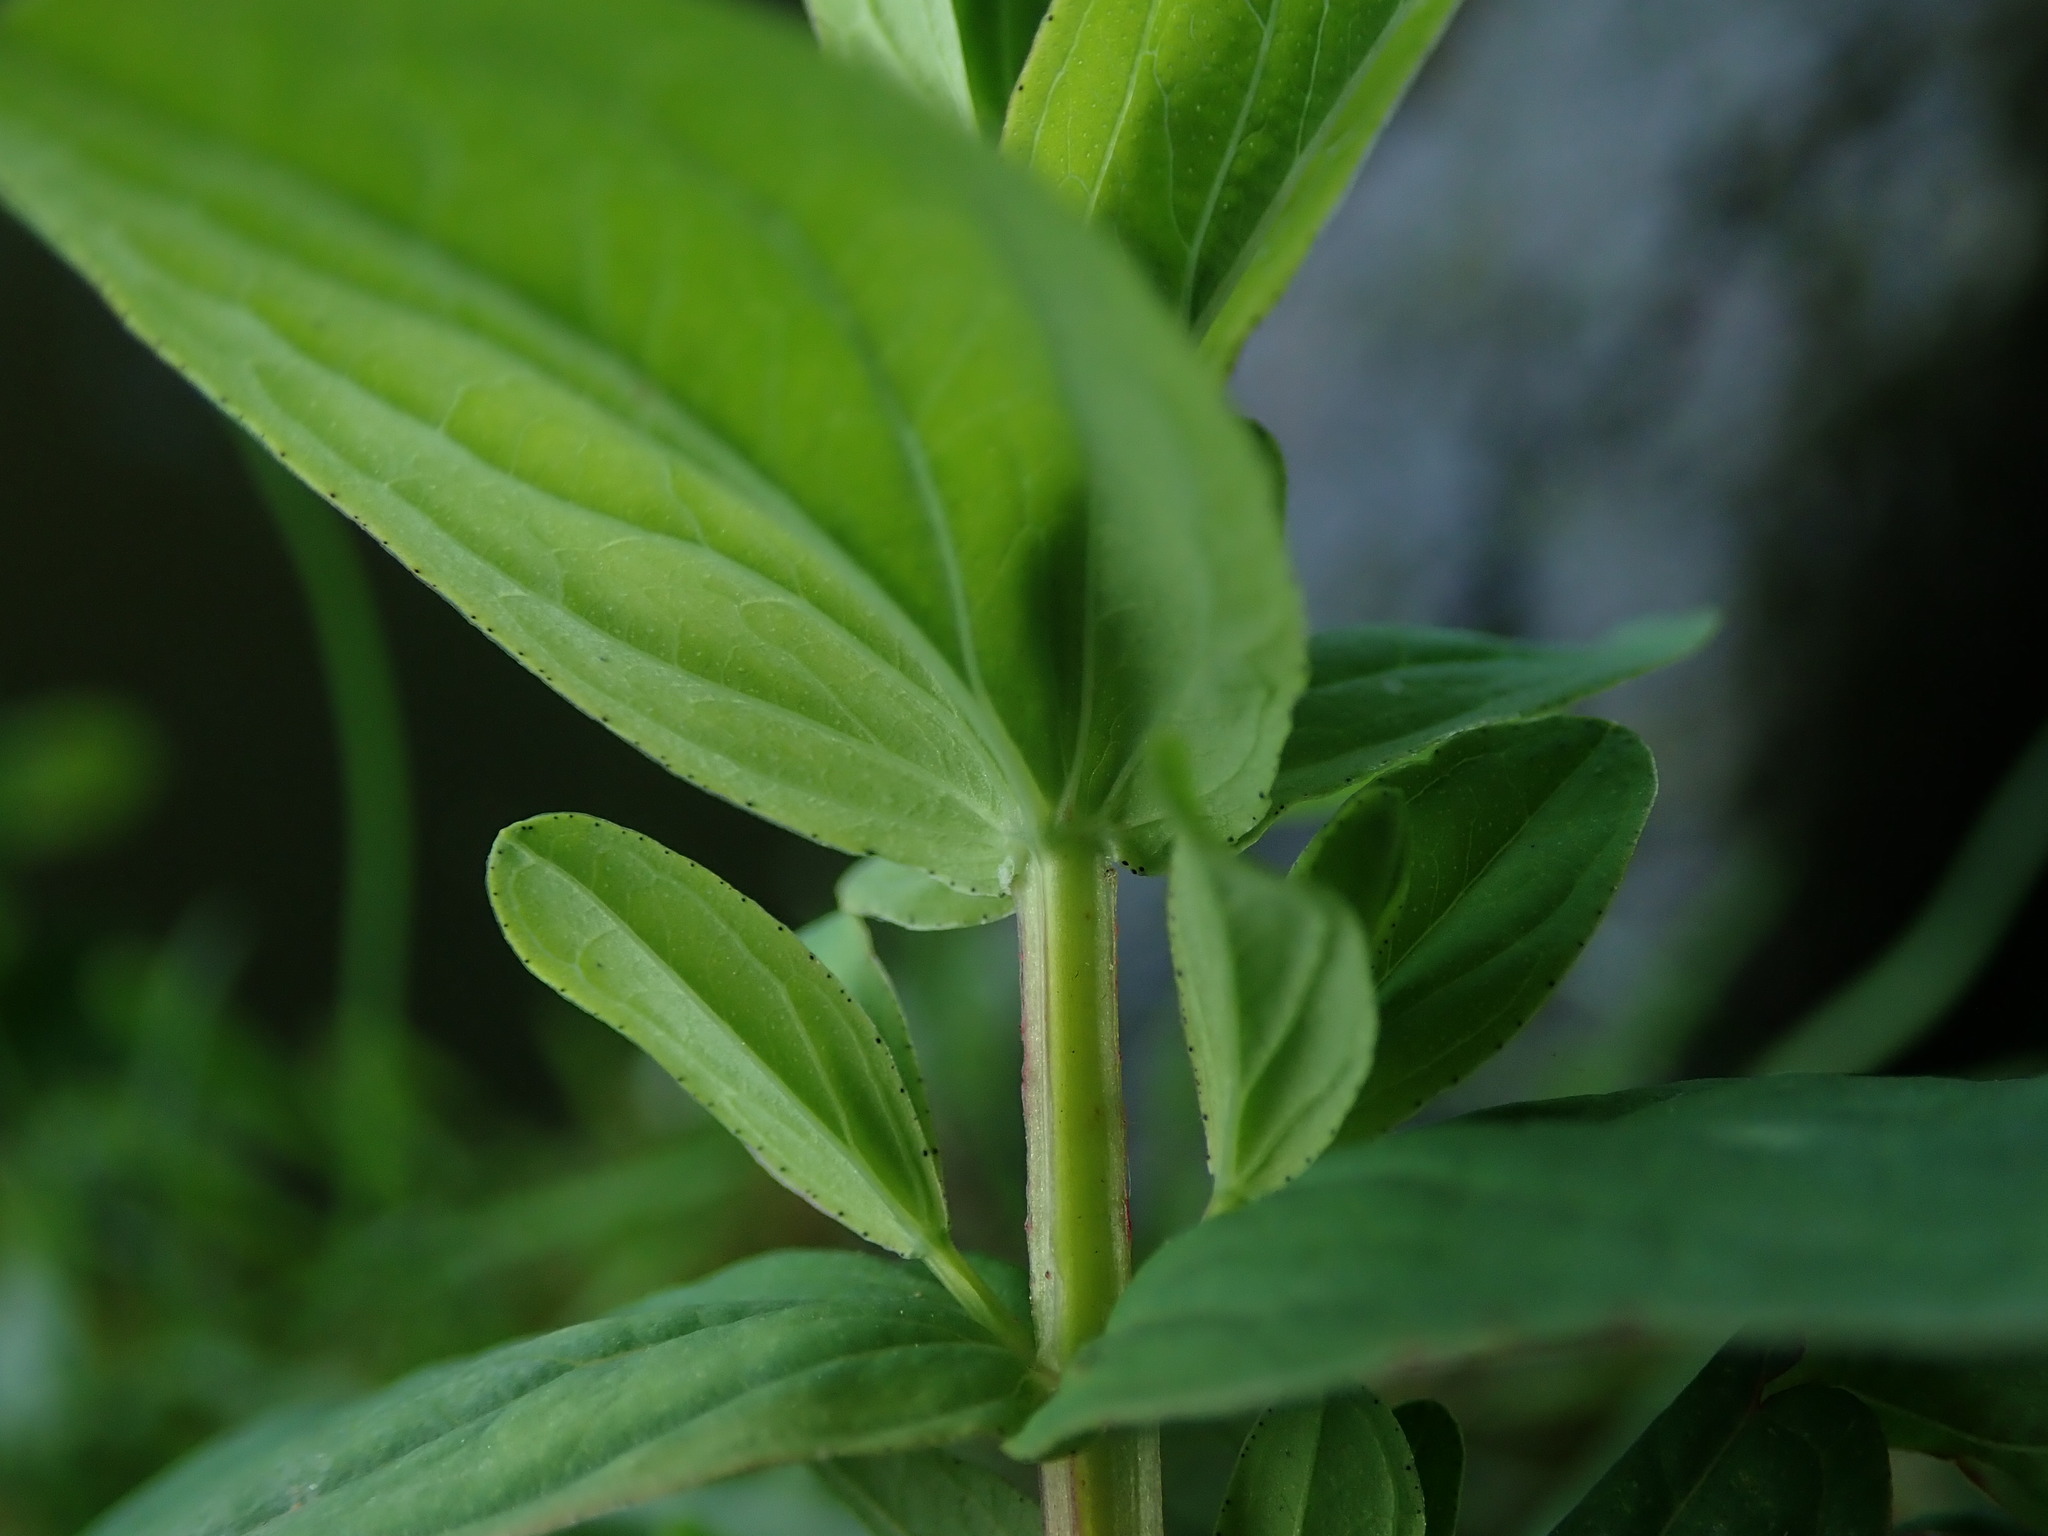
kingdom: Plantae
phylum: Tracheophyta
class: Magnoliopsida
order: Malpighiales
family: Hypericaceae
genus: Hypericum
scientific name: Hypericum tetrapterum
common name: Square-stalked st. john's-wort
